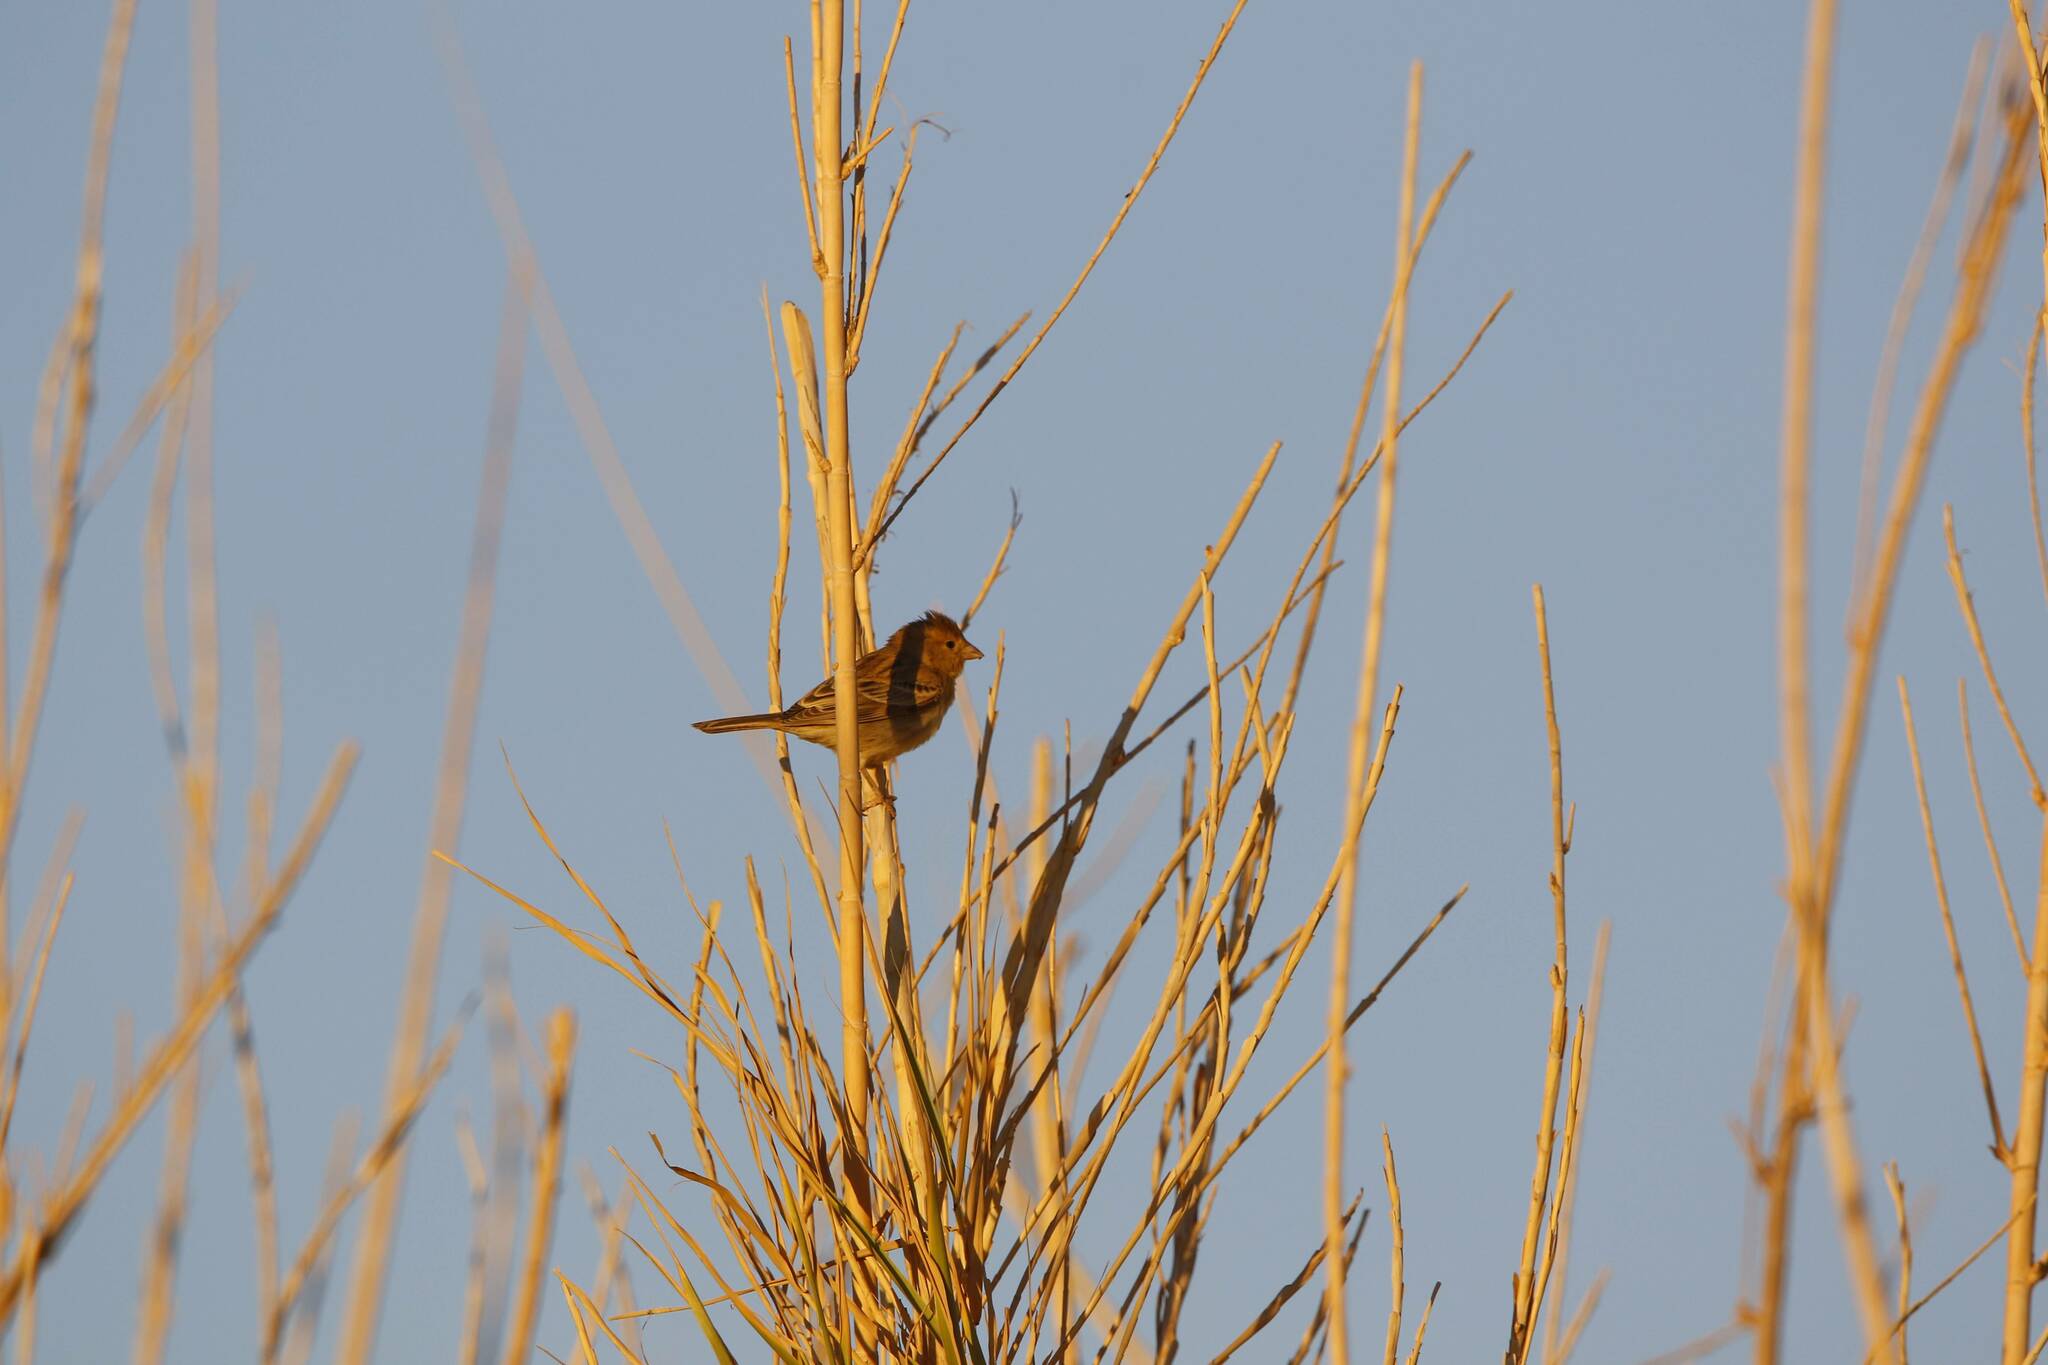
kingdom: Animalia
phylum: Chordata
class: Aves
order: Passeriformes
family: Passeridae
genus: Passer
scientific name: Passer domesticus
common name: House sparrow
